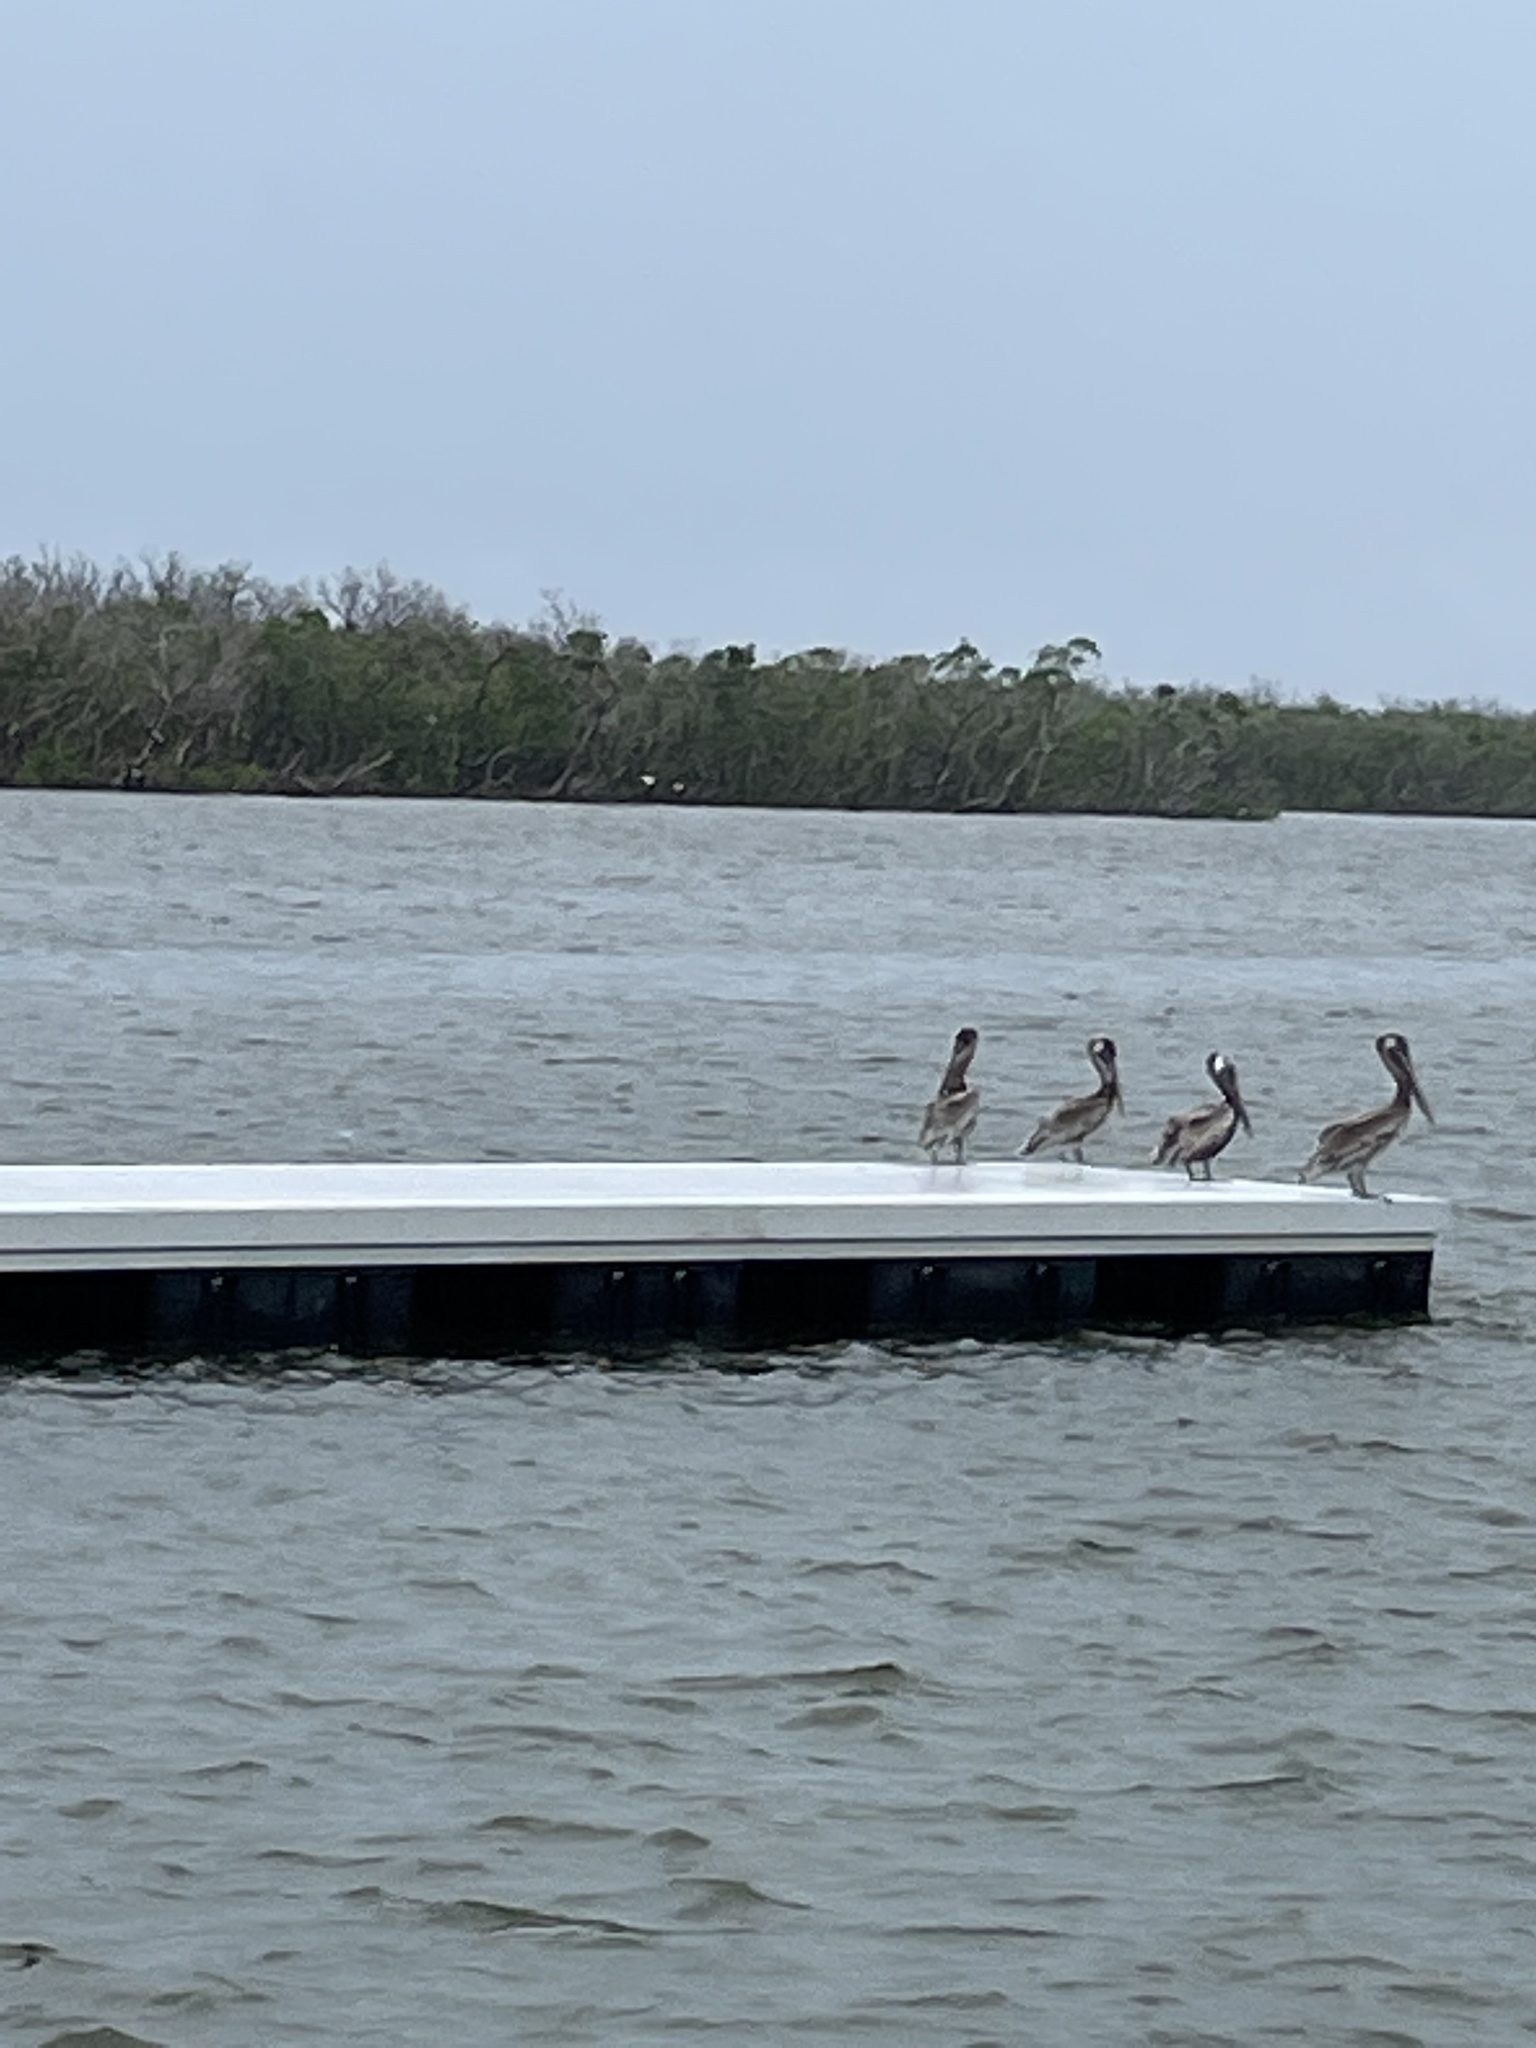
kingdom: Animalia
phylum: Chordata
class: Aves
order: Pelecaniformes
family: Pelecanidae
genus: Pelecanus
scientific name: Pelecanus occidentalis
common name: Brown pelican
